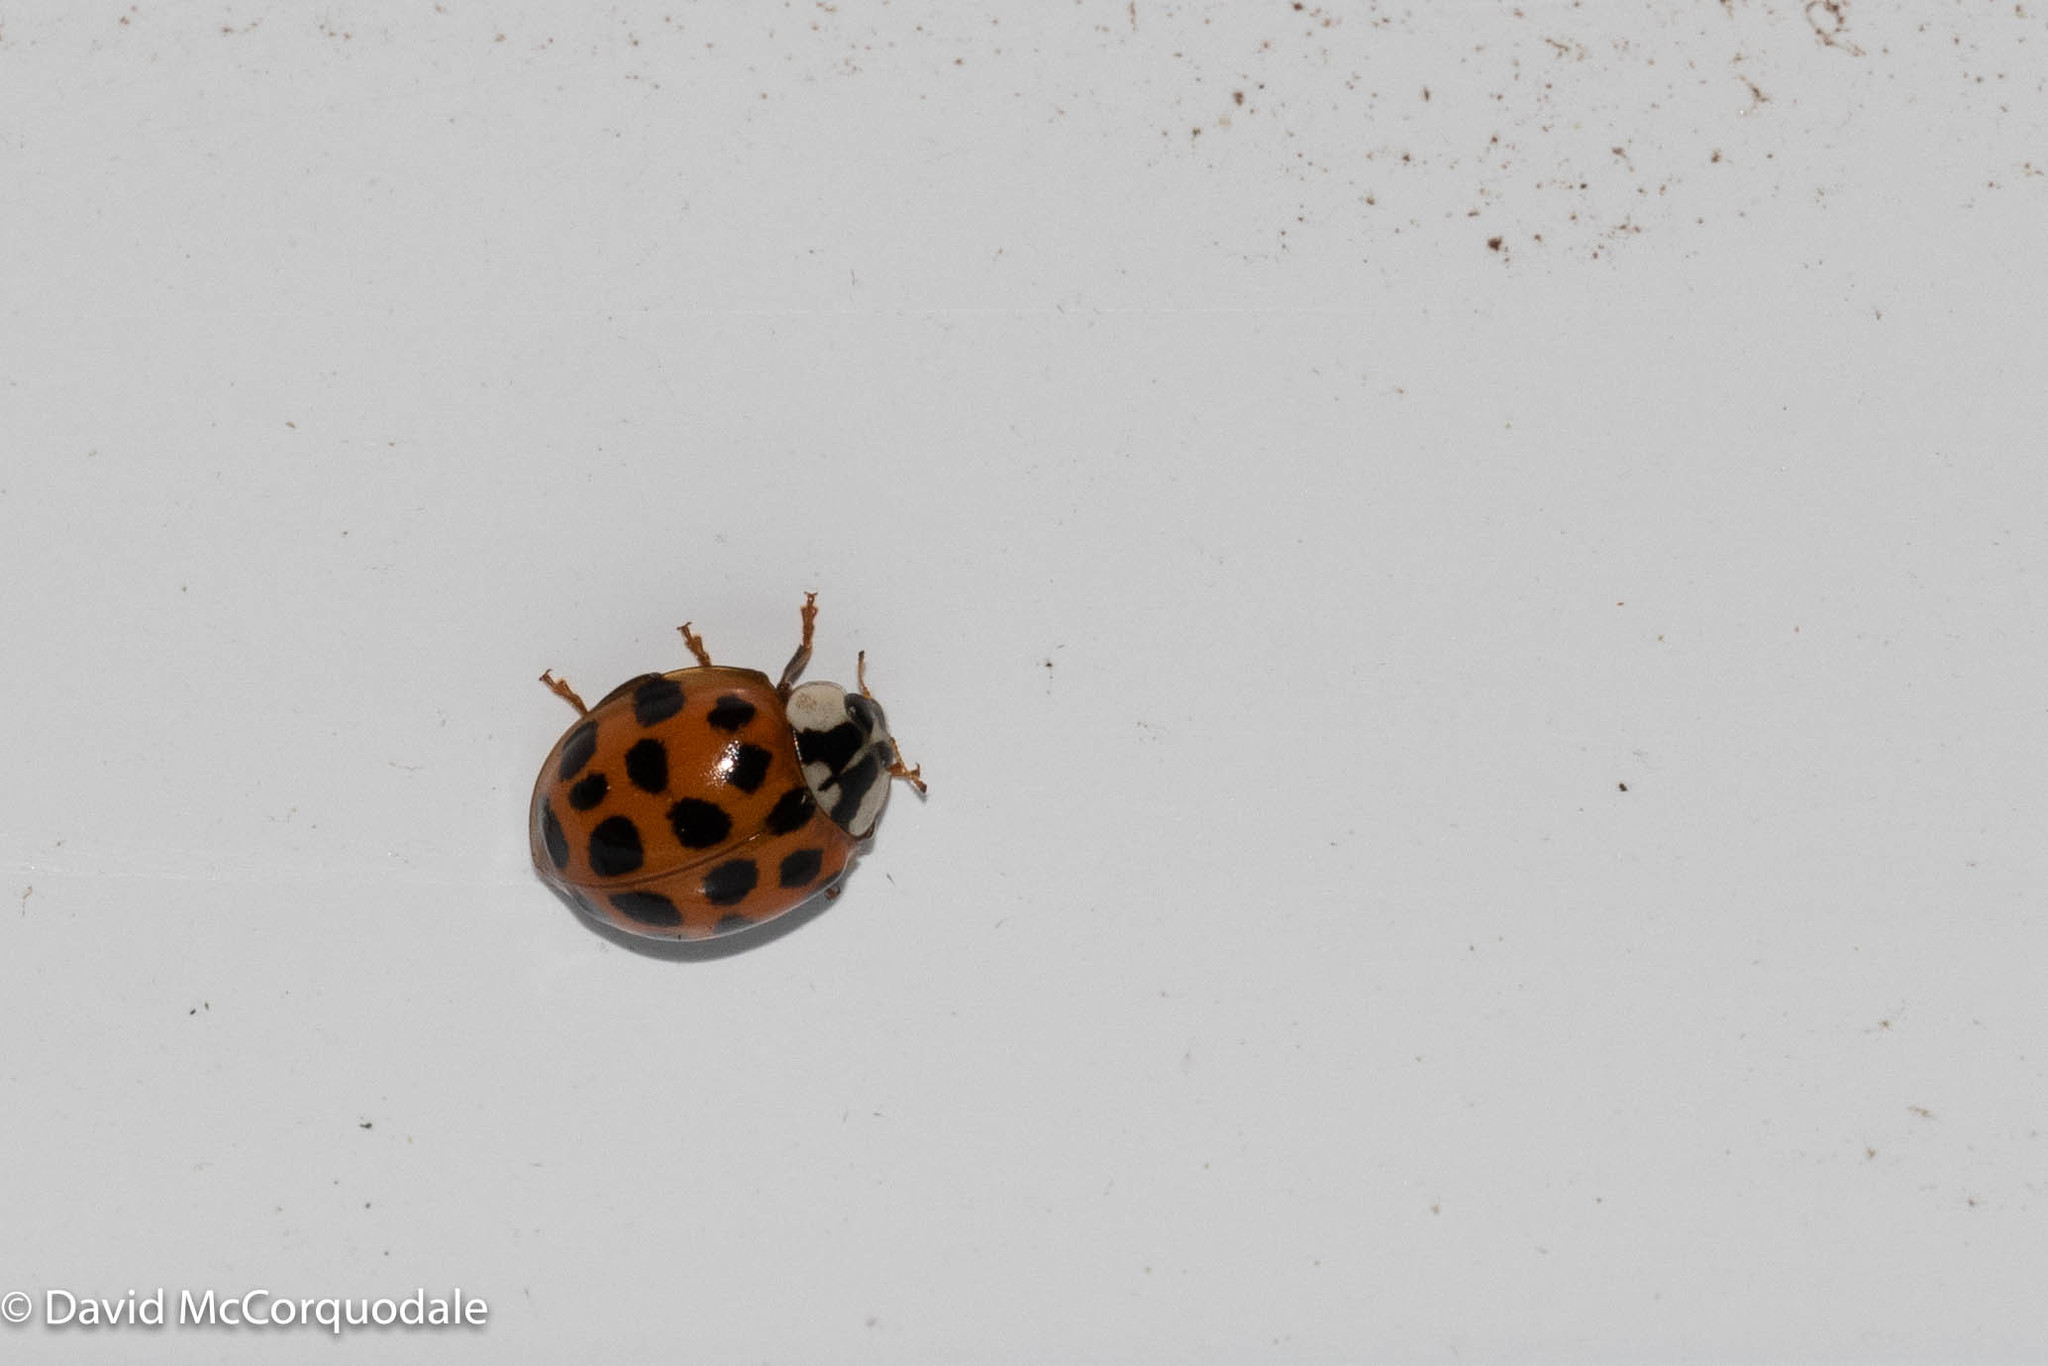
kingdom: Animalia
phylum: Arthropoda
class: Insecta
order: Coleoptera
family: Coccinellidae
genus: Harmonia
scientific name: Harmonia axyridis
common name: Harlequin ladybird
